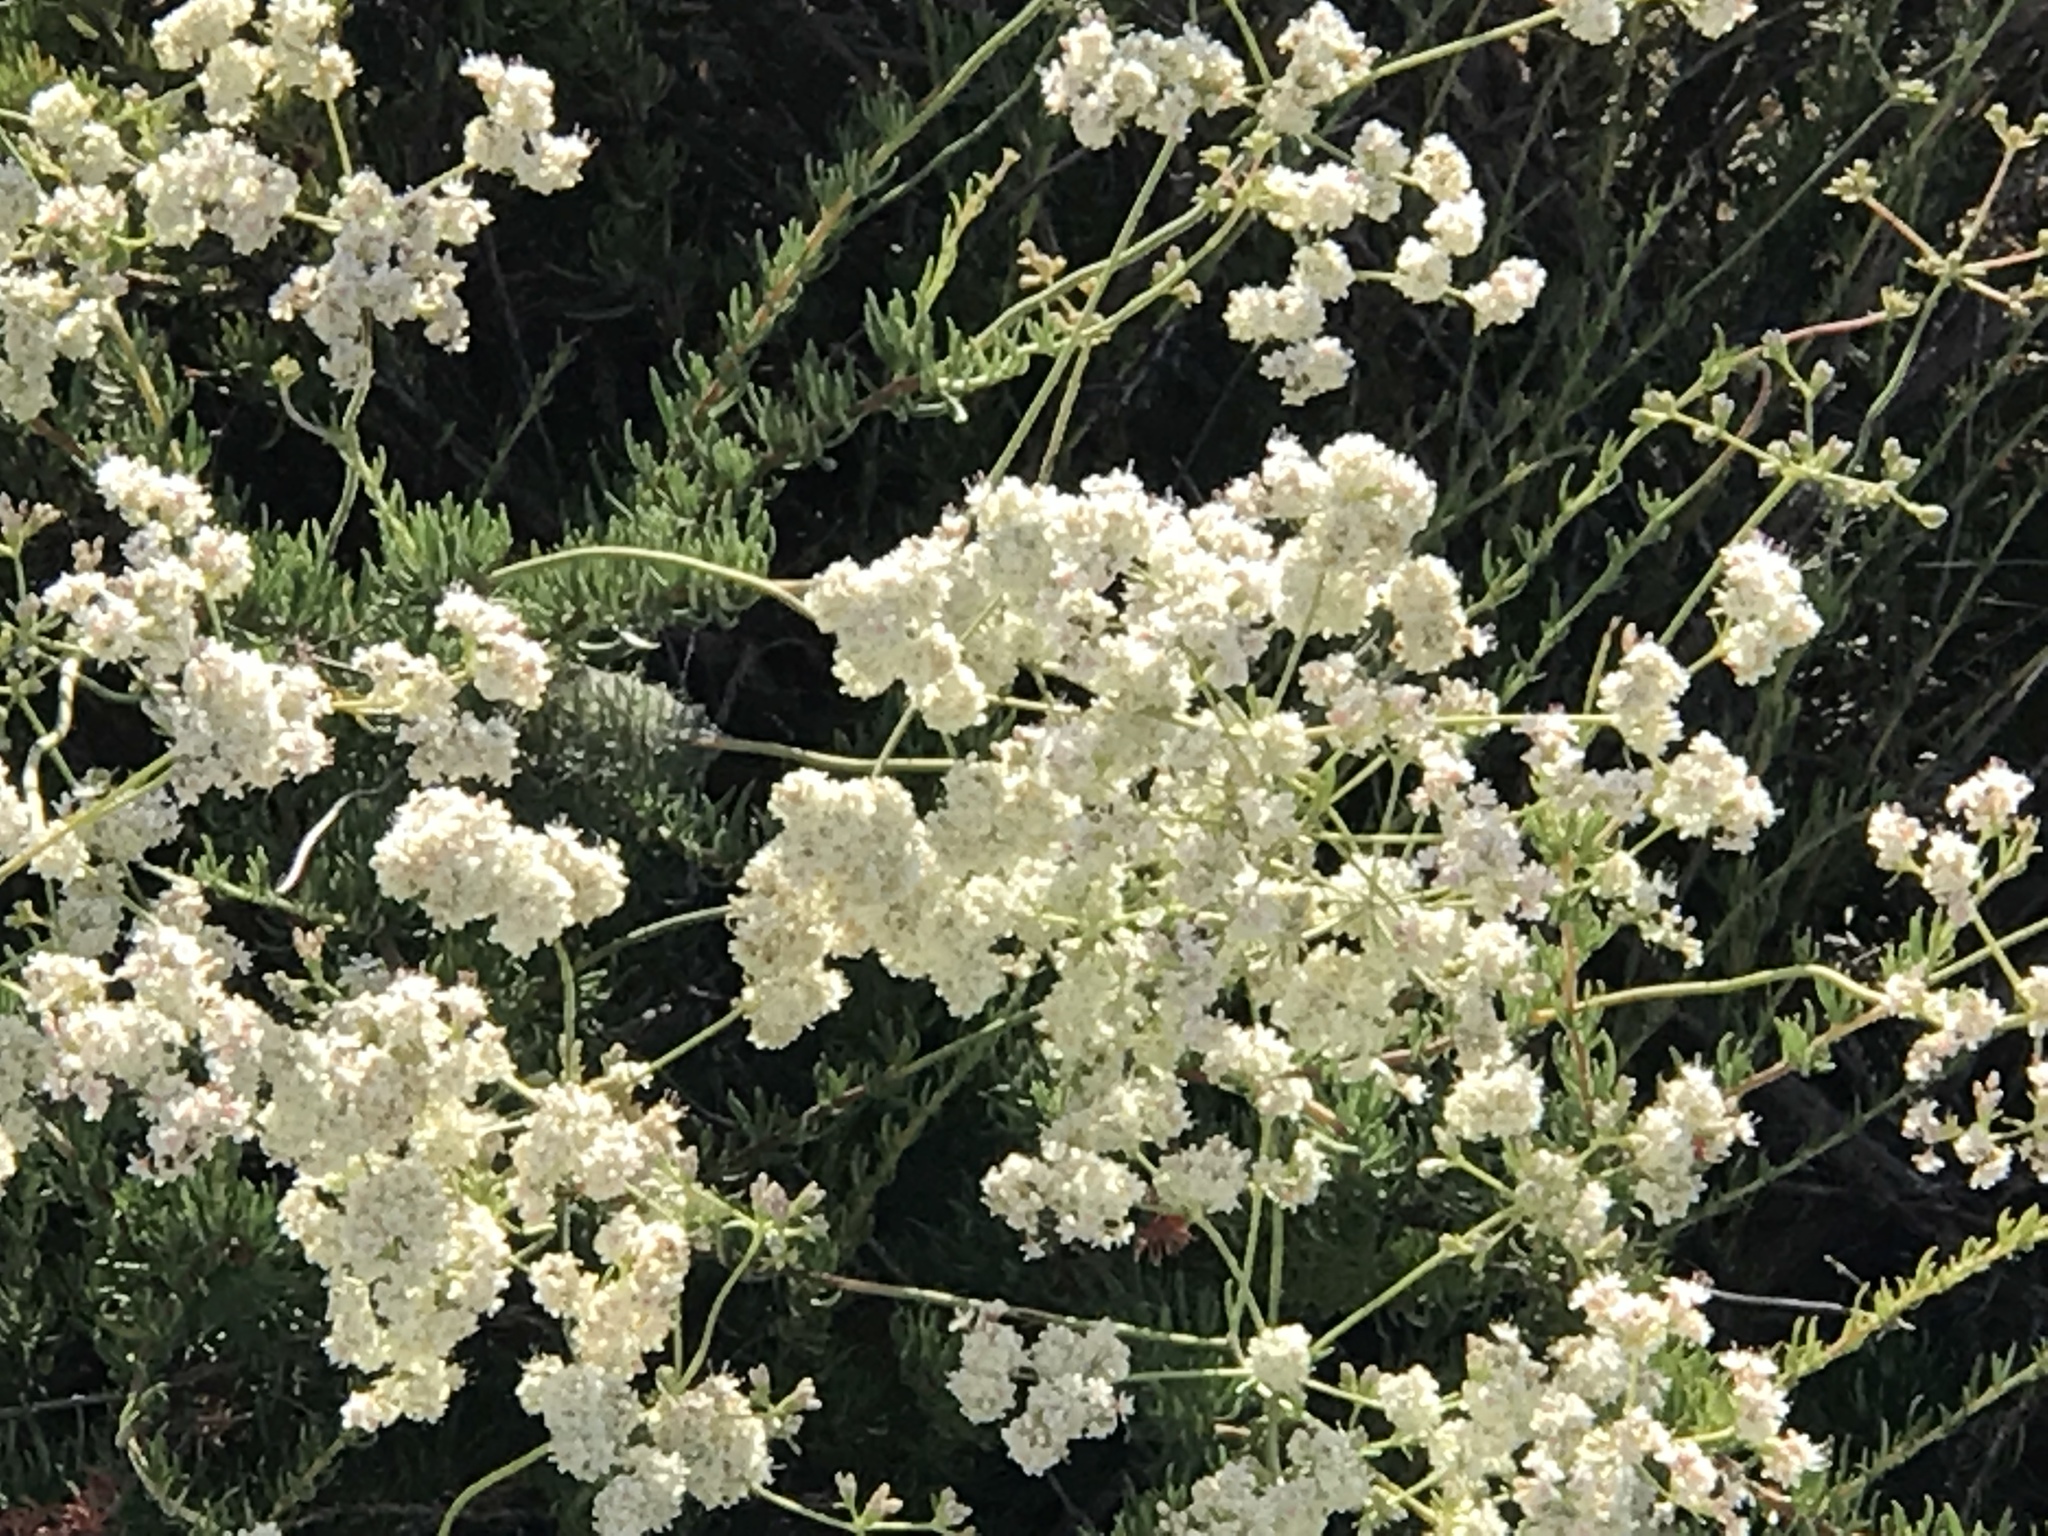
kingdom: Plantae
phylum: Tracheophyta
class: Magnoliopsida
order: Caryophyllales
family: Polygonaceae
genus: Eriogonum
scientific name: Eriogonum fasciculatum
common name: California wild buckwheat
